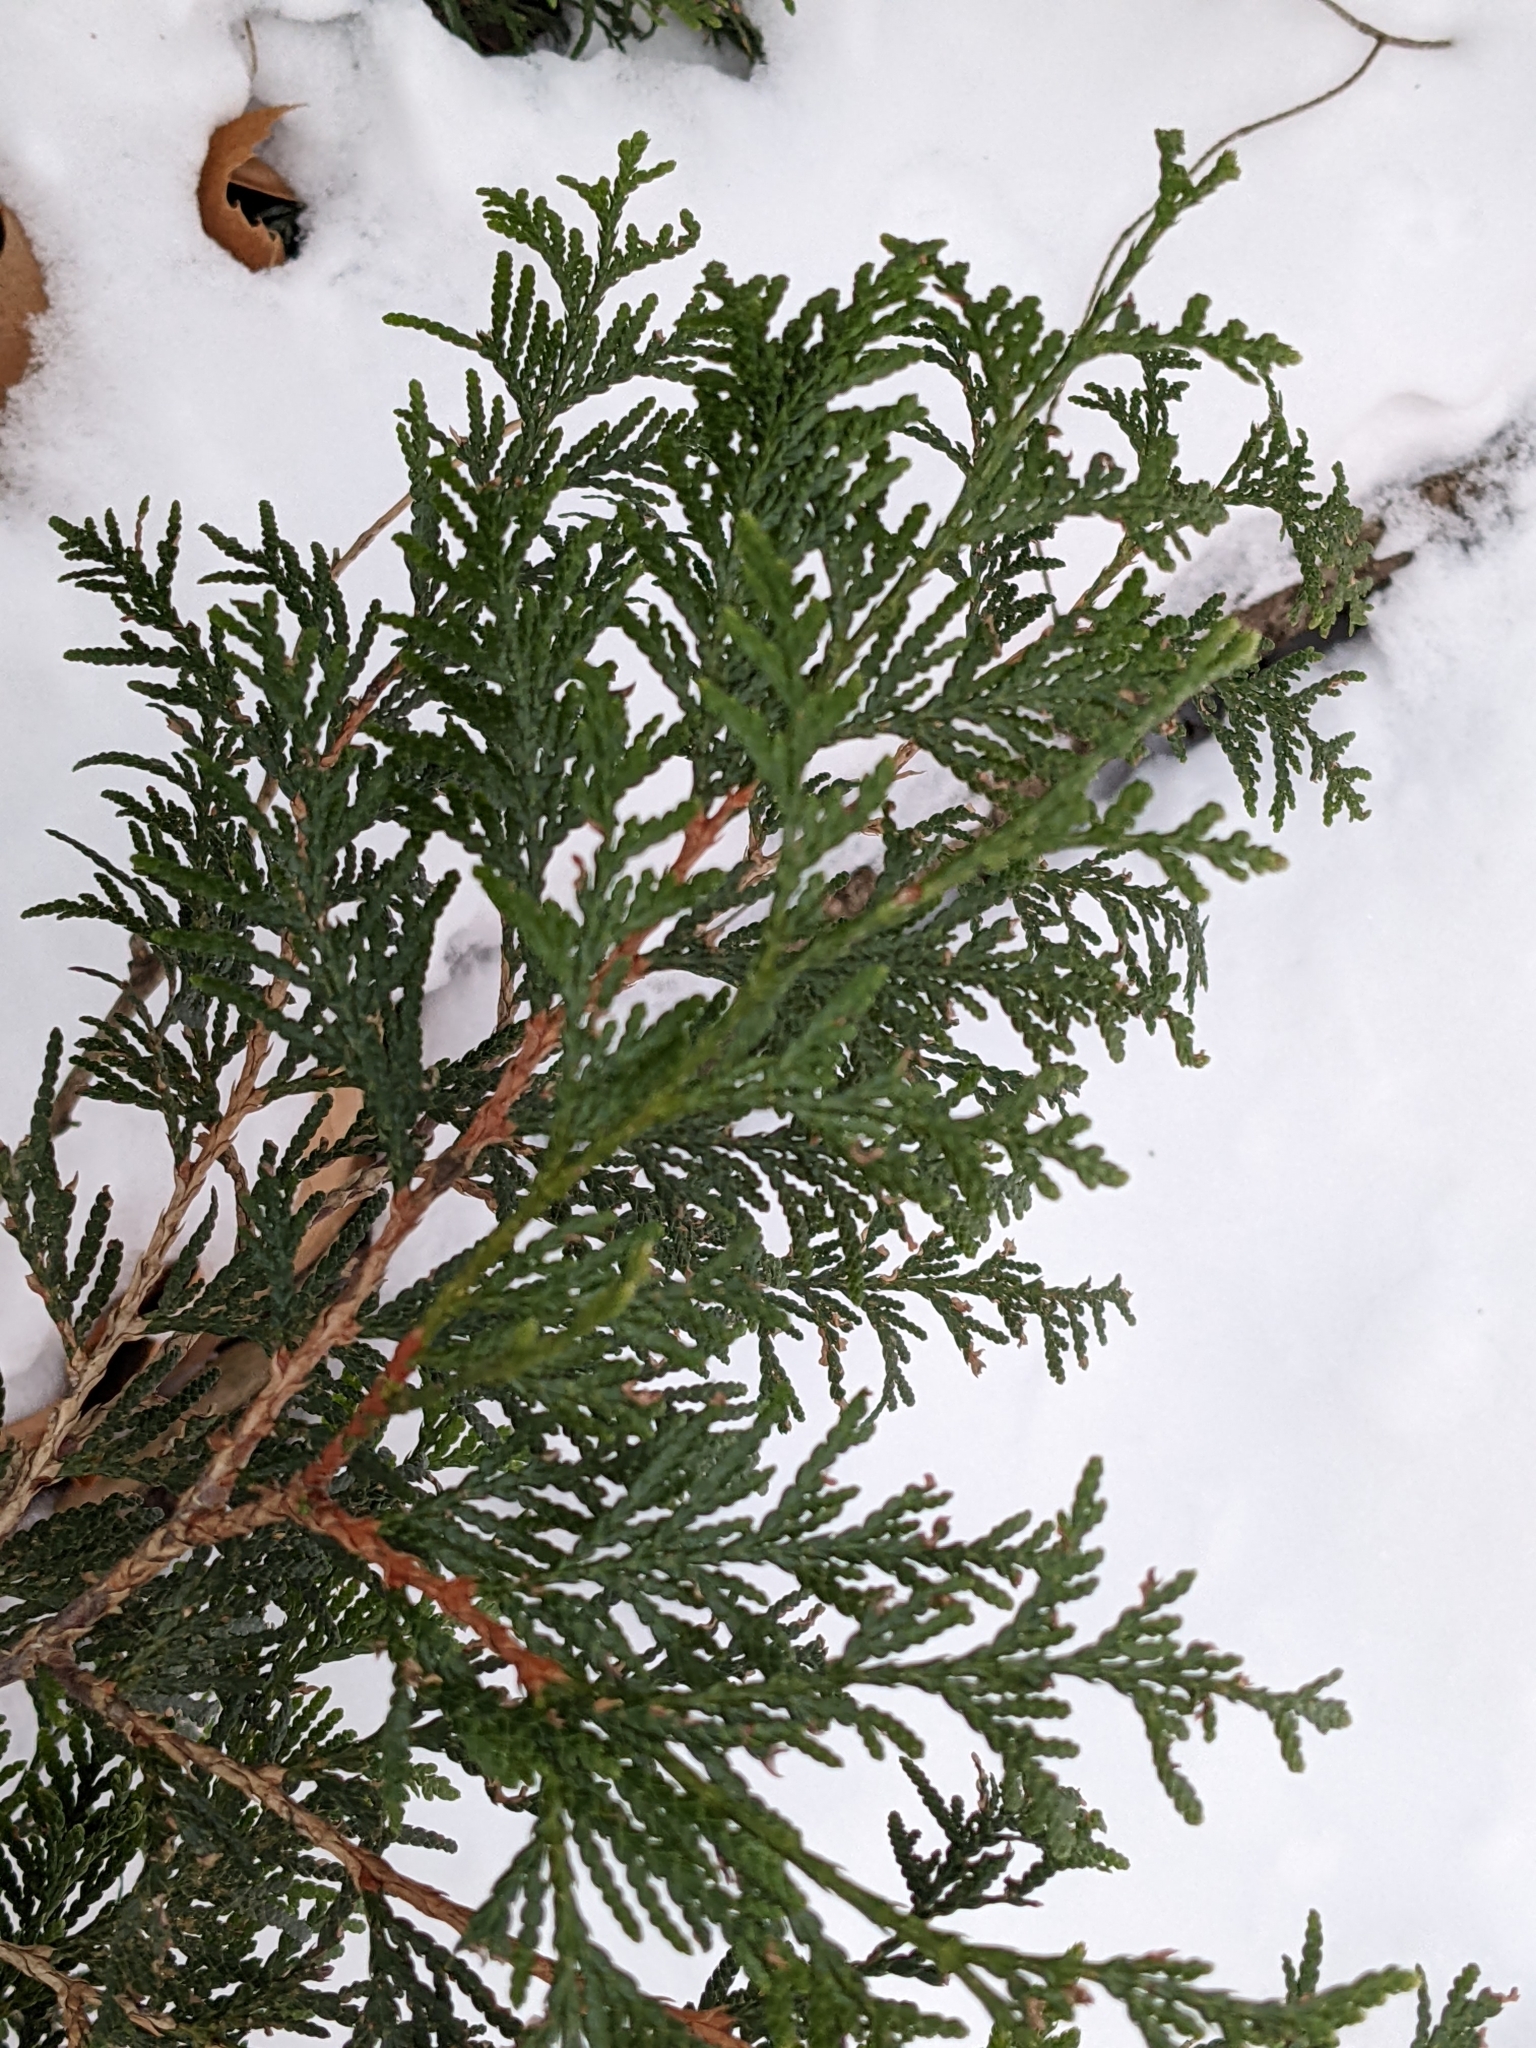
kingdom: Plantae
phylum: Tracheophyta
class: Pinopsida
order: Pinales
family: Cupressaceae
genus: Thuja
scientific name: Thuja plicata
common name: Western red-cedar
